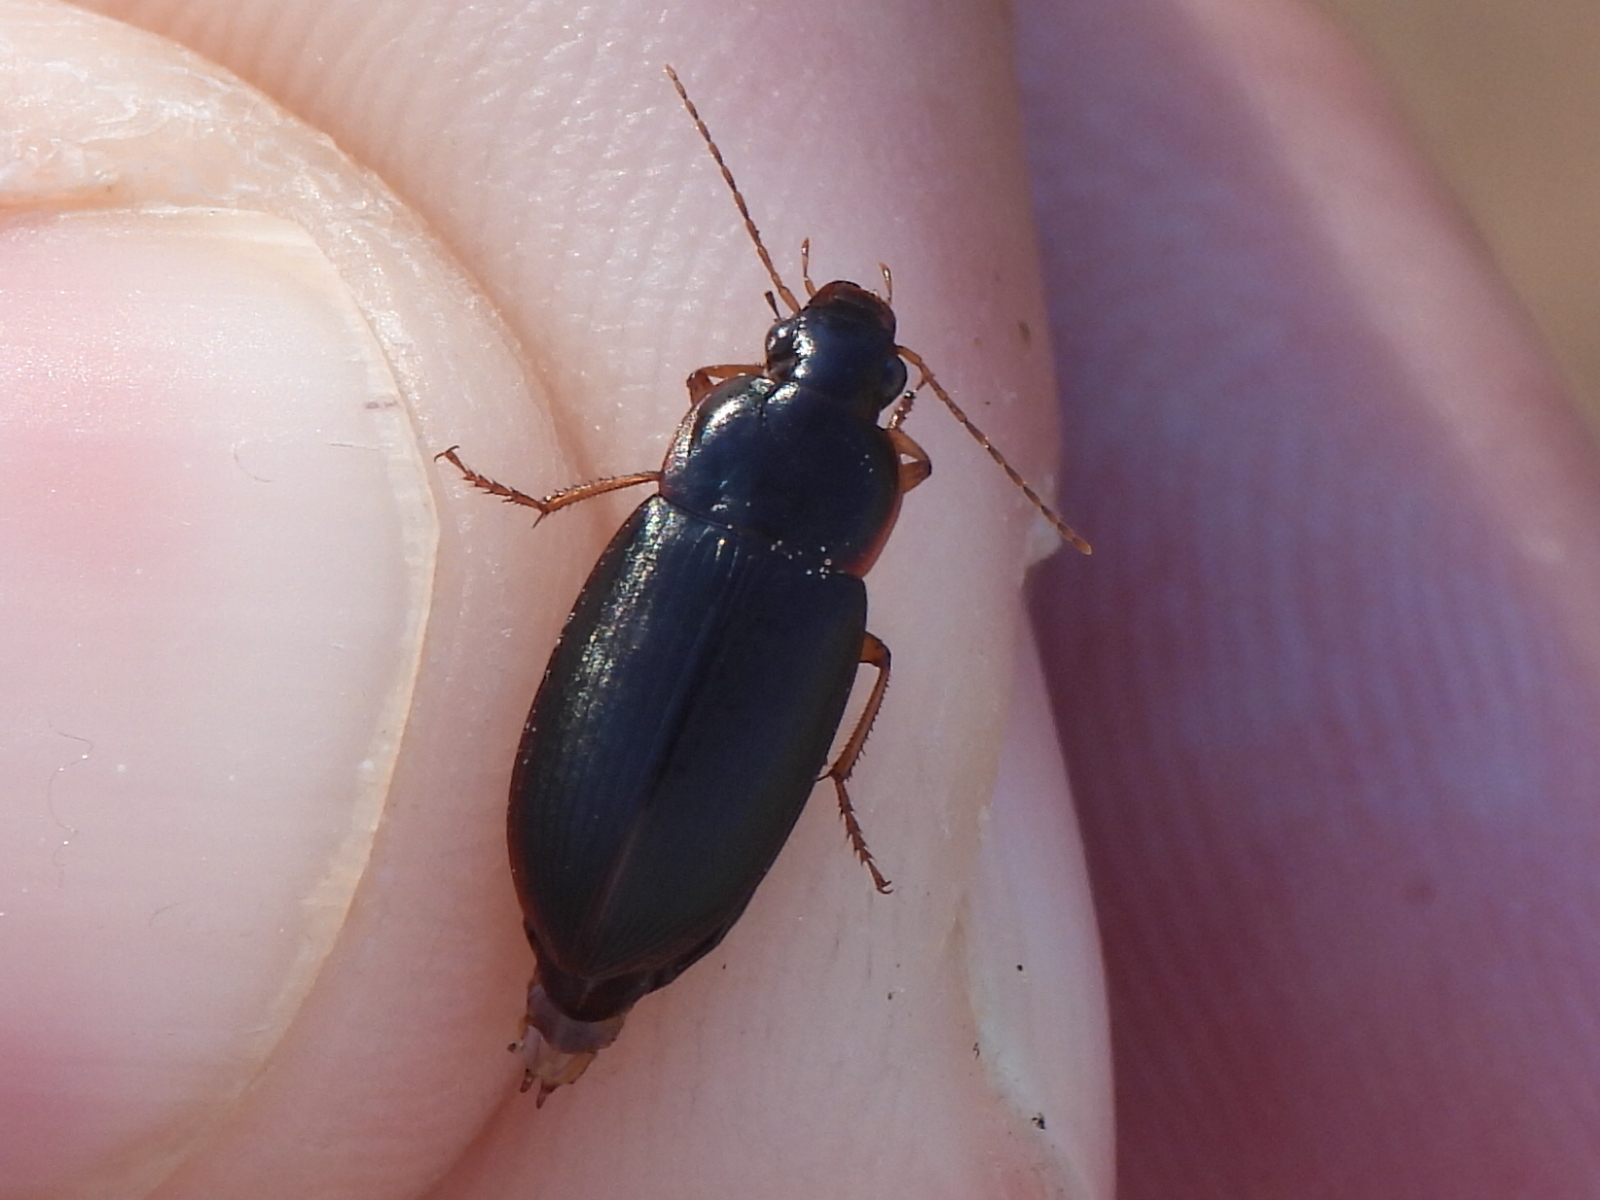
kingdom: Animalia
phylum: Arthropoda
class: Insecta
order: Coleoptera
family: Carabidae
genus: Notiobia
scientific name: Notiobia terminata
